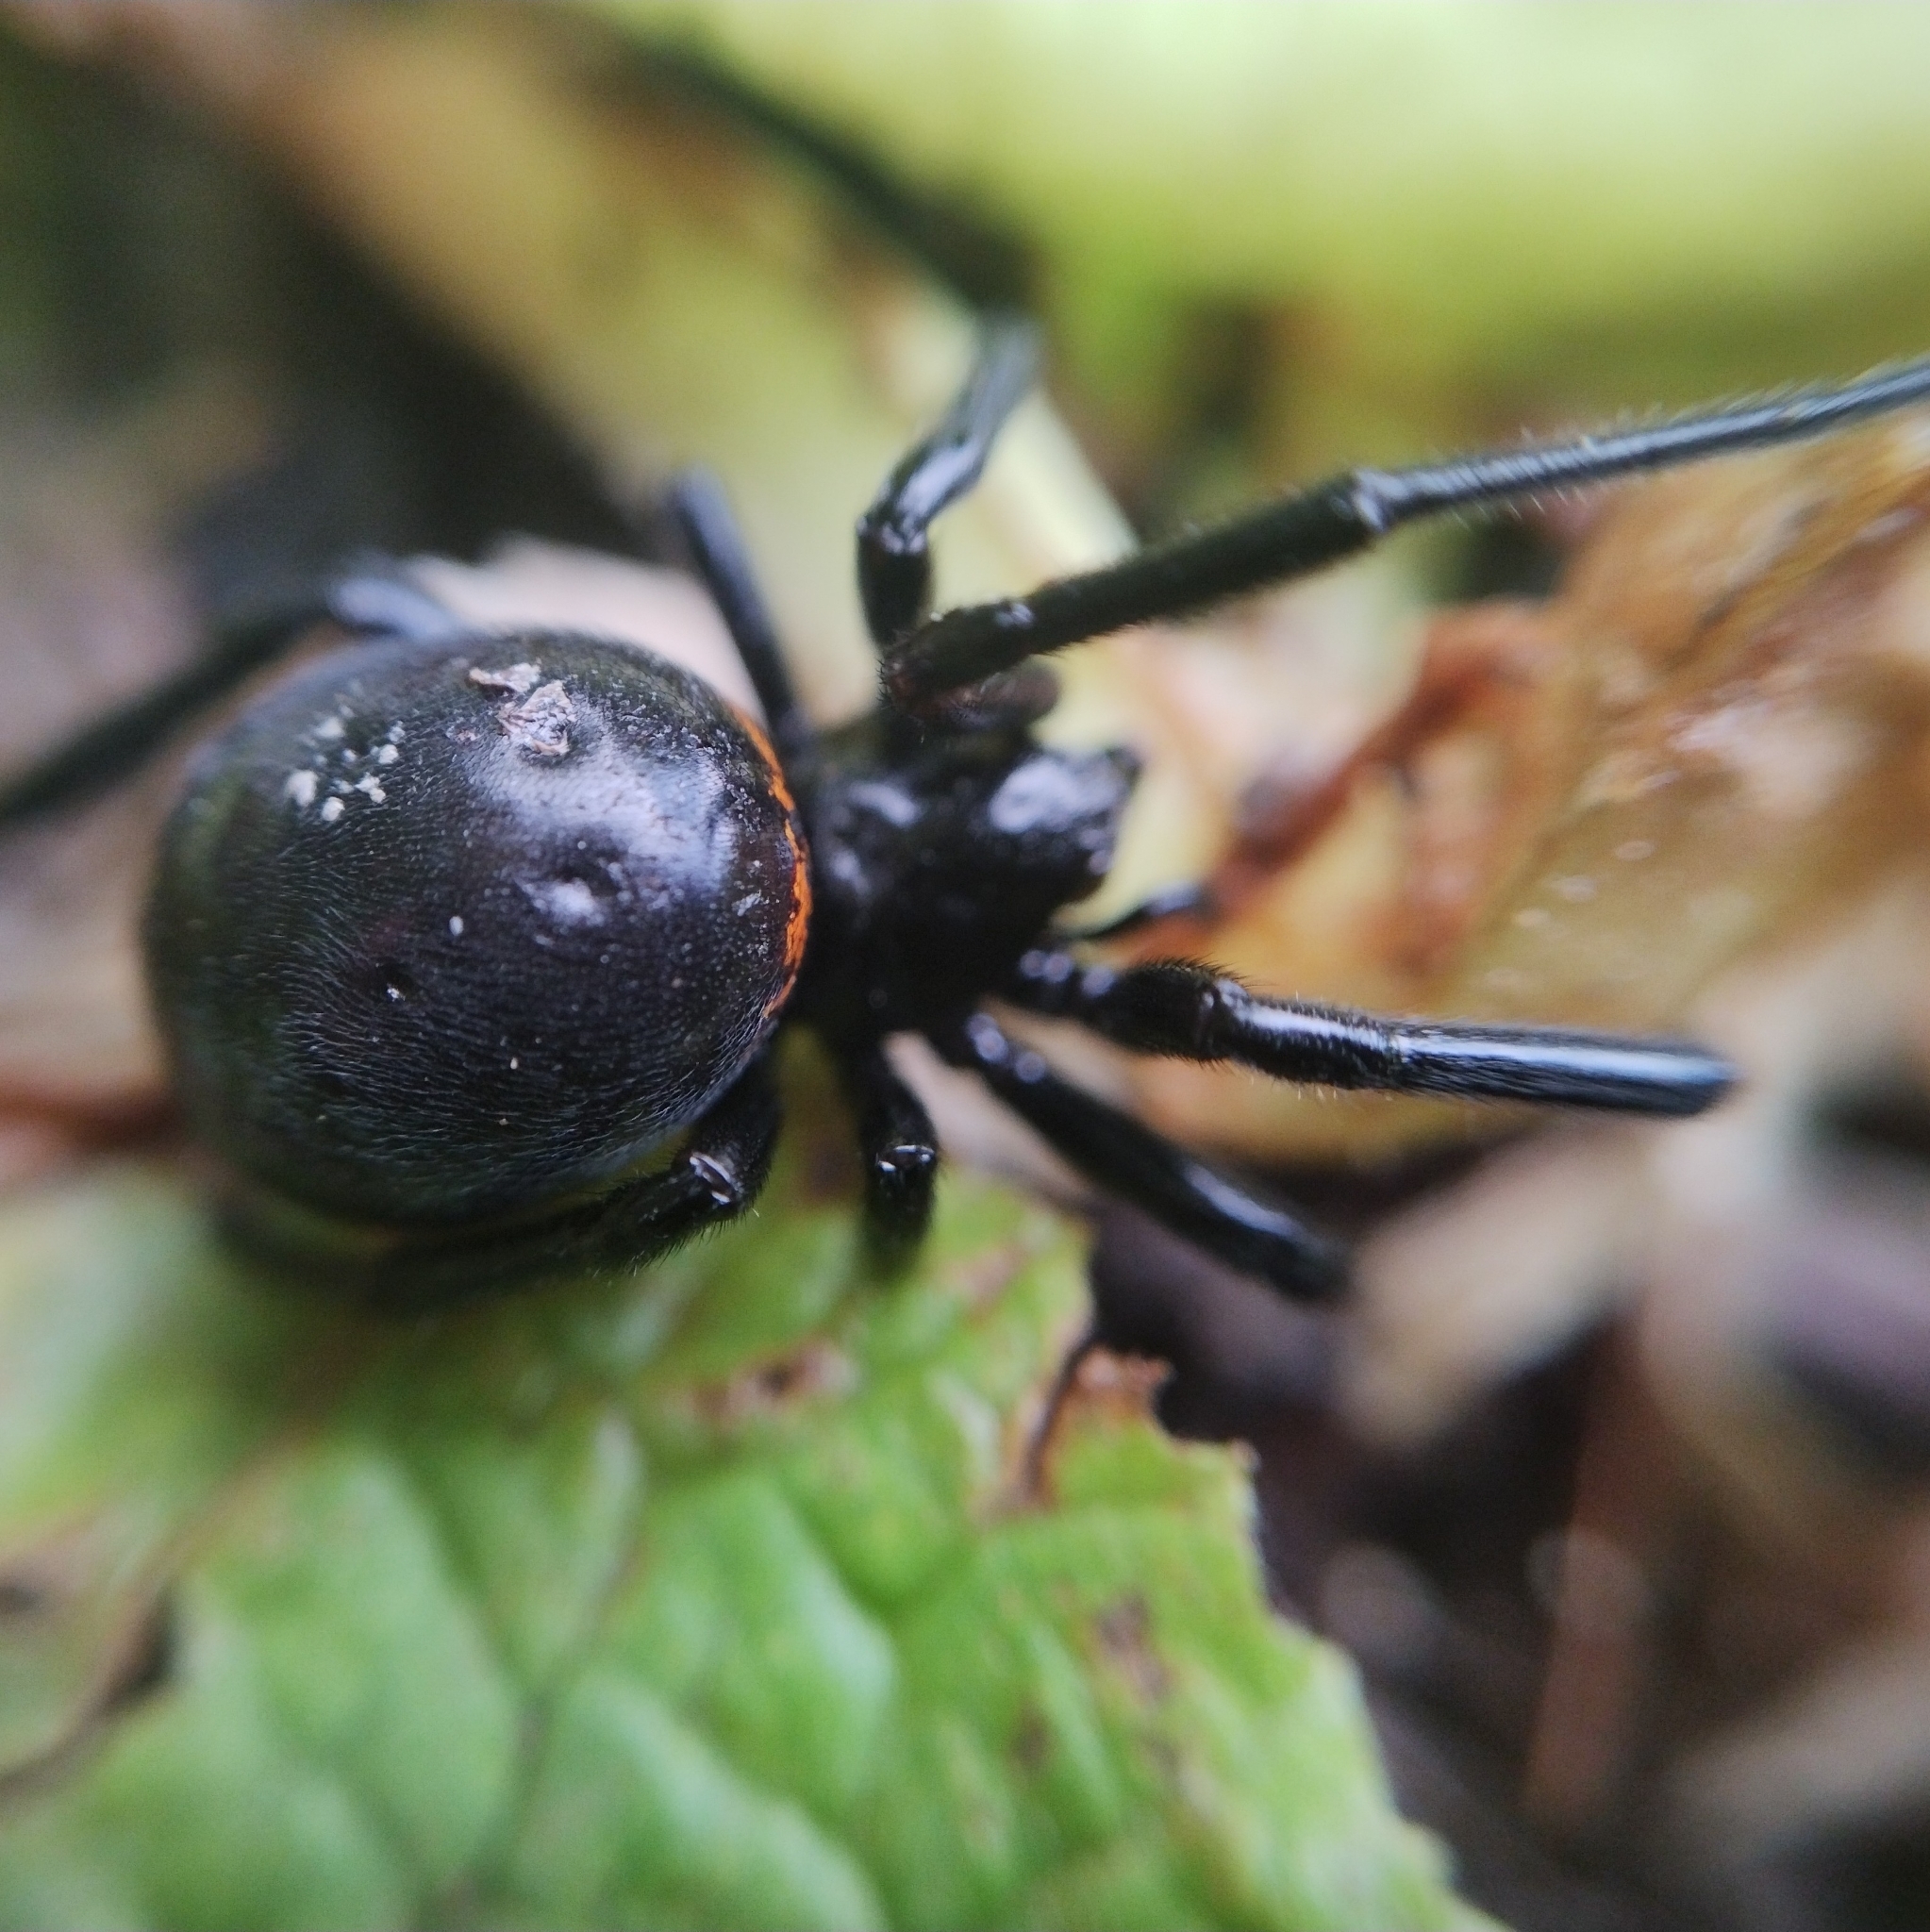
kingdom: Animalia
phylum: Arthropoda
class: Arachnida
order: Araneae
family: Theridiidae
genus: Steatoda
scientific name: Steatoda paykulliana
